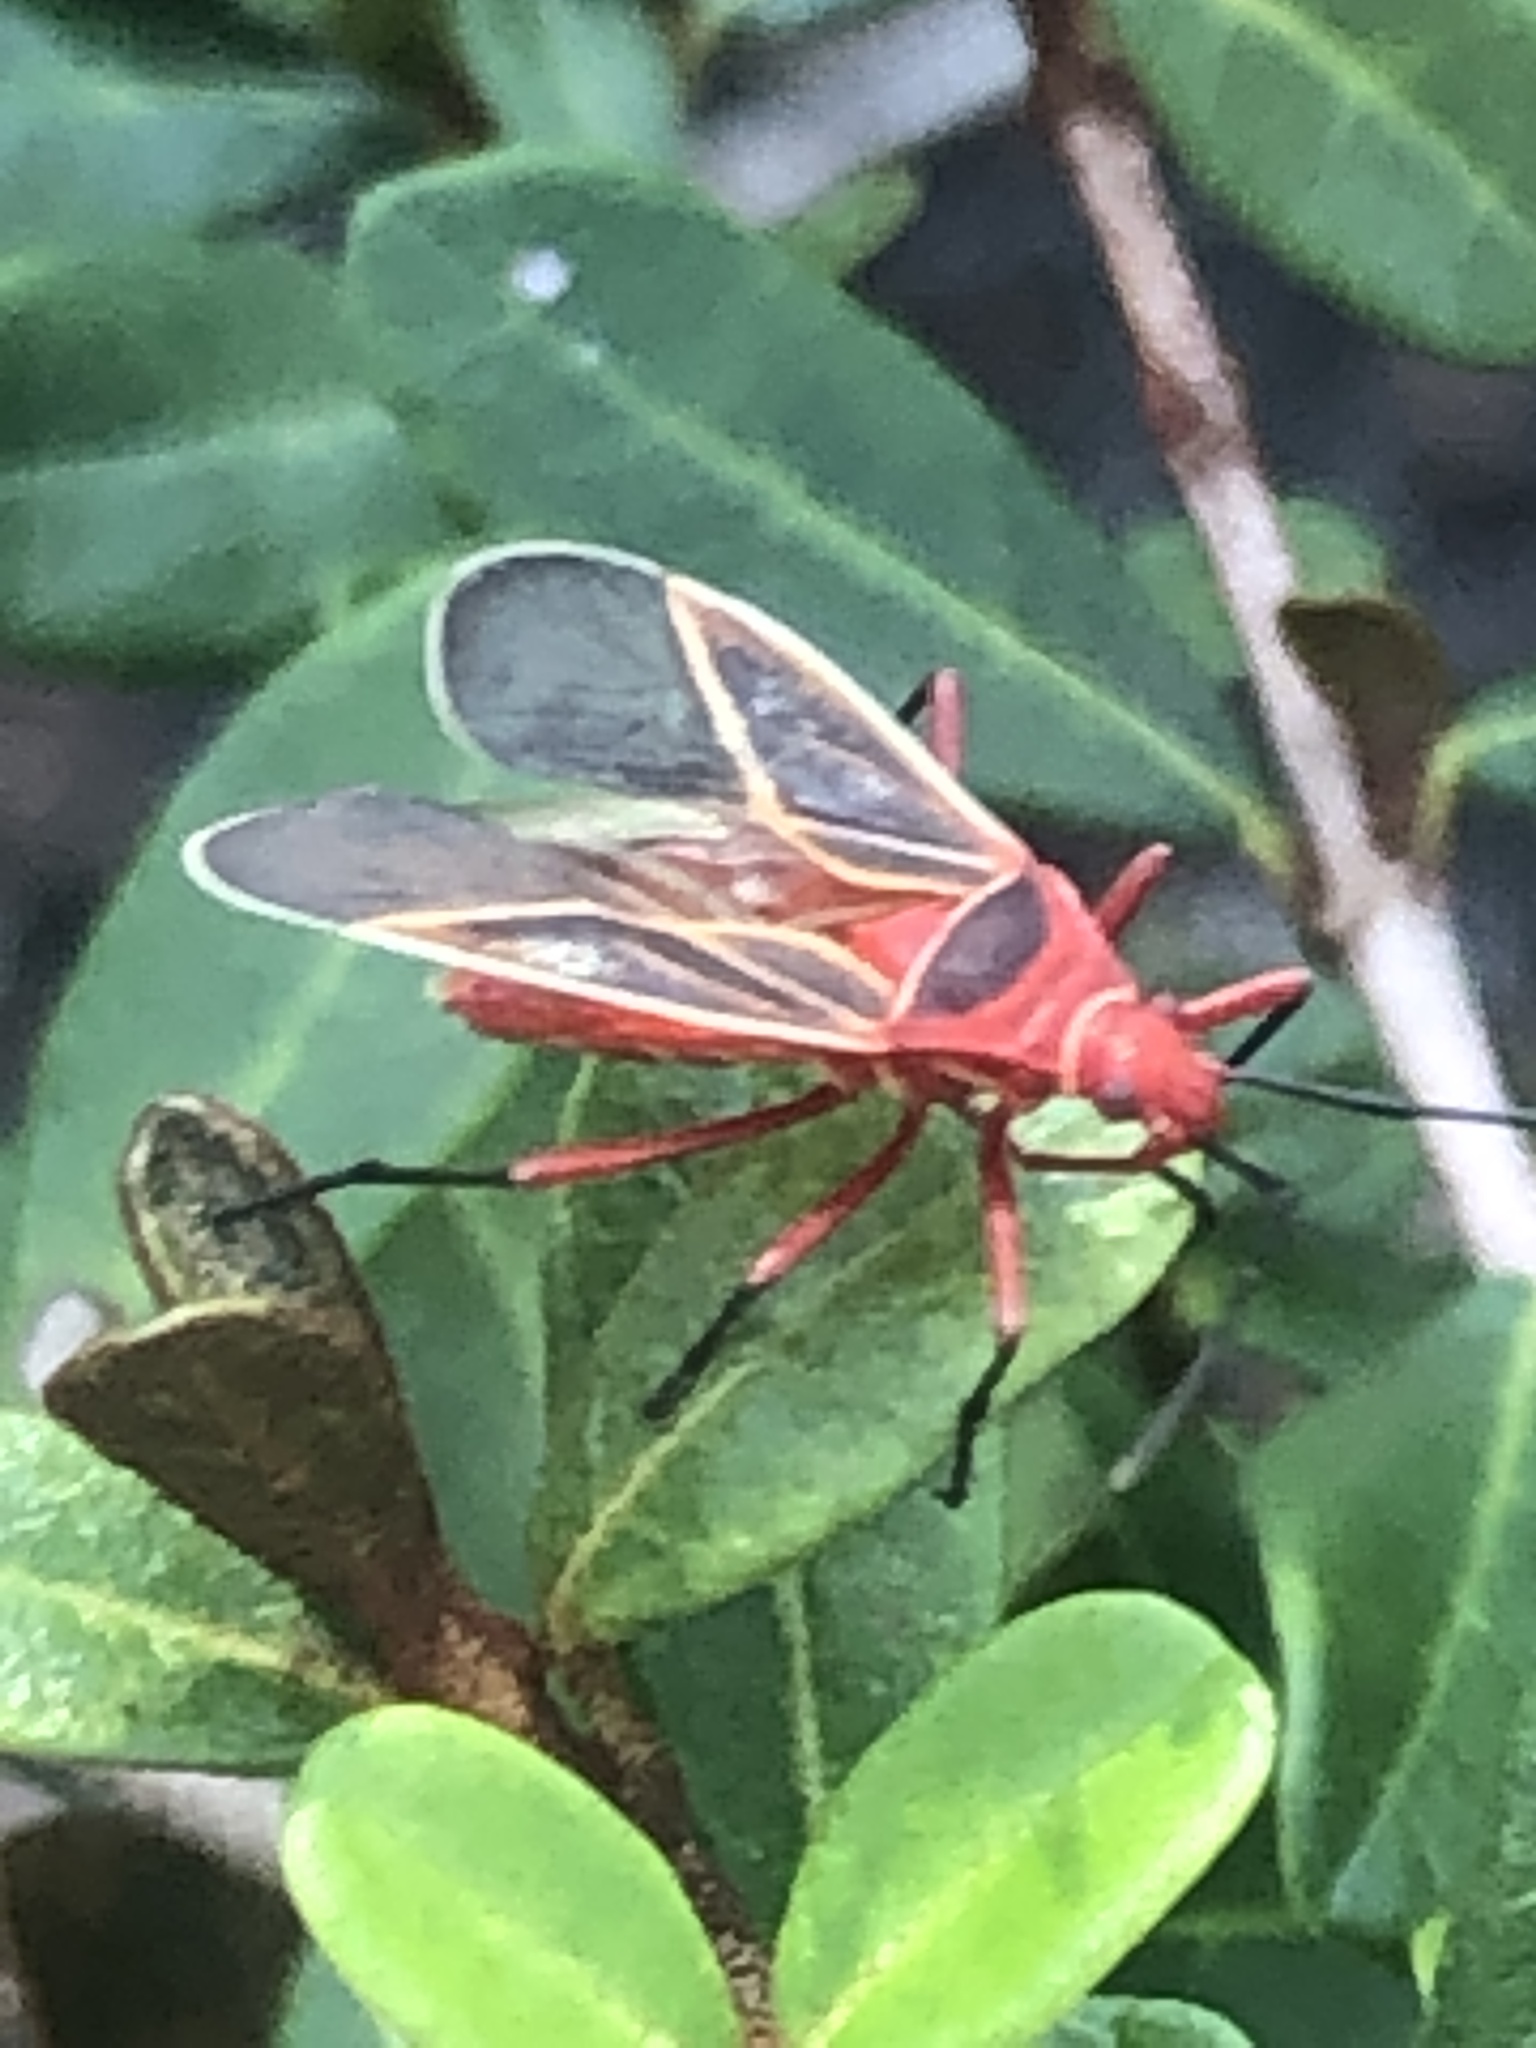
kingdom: Animalia
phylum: Arthropoda
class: Insecta
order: Hemiptera
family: Pyrrhocoridae
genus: Dysdercus
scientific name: Dysdercus suturellus
